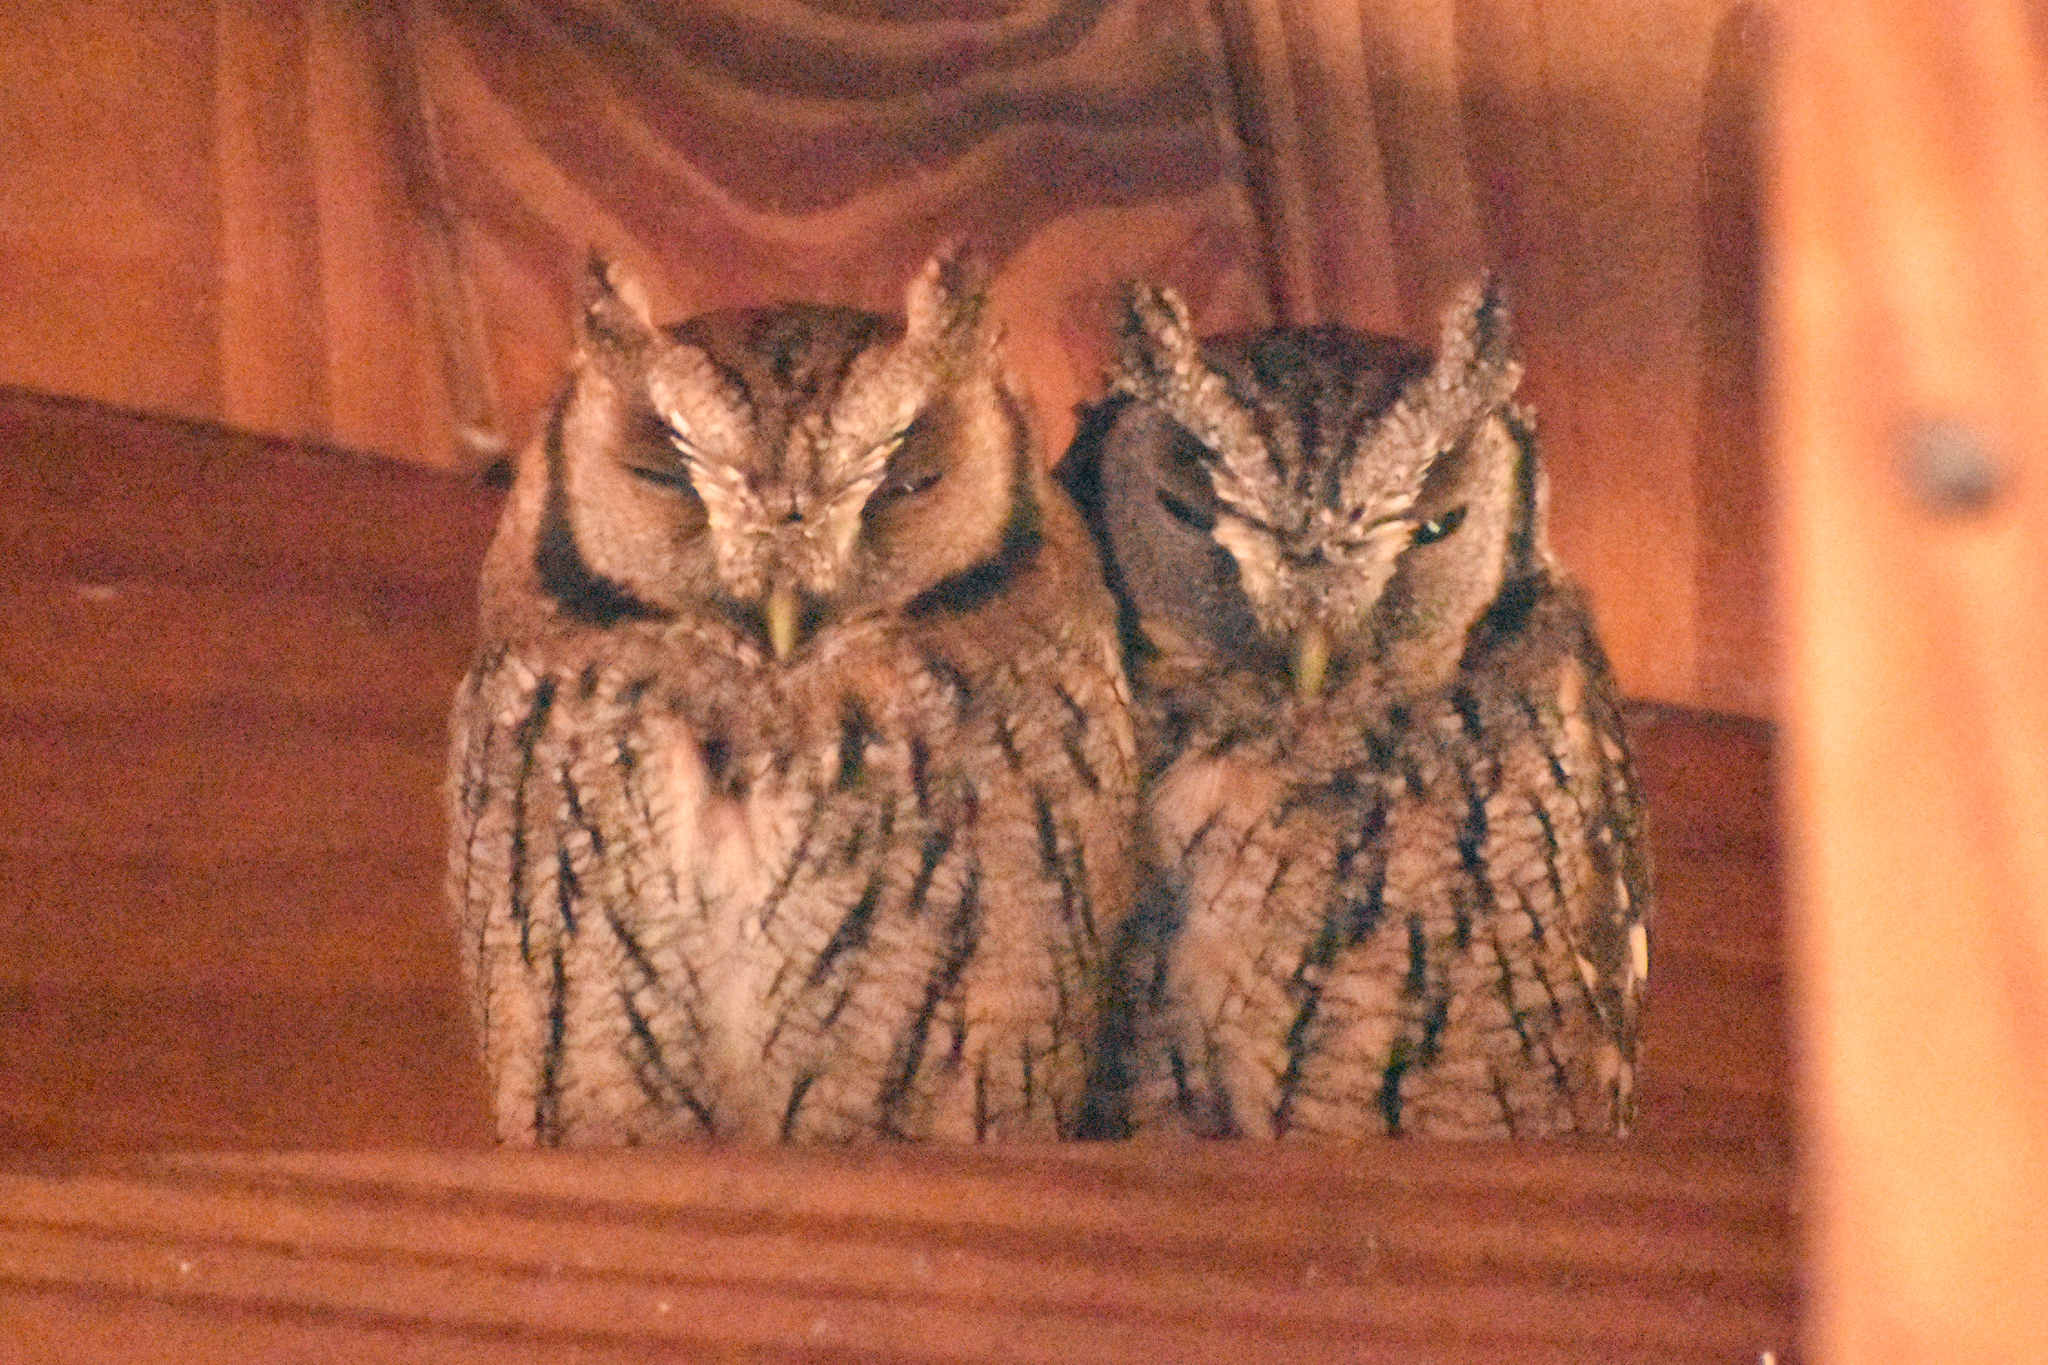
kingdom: Animalia
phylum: Chordata
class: Aves
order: Strigiformes
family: Strigidae
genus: Megascops
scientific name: Megascops choliba
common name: Tropical screech-owl
